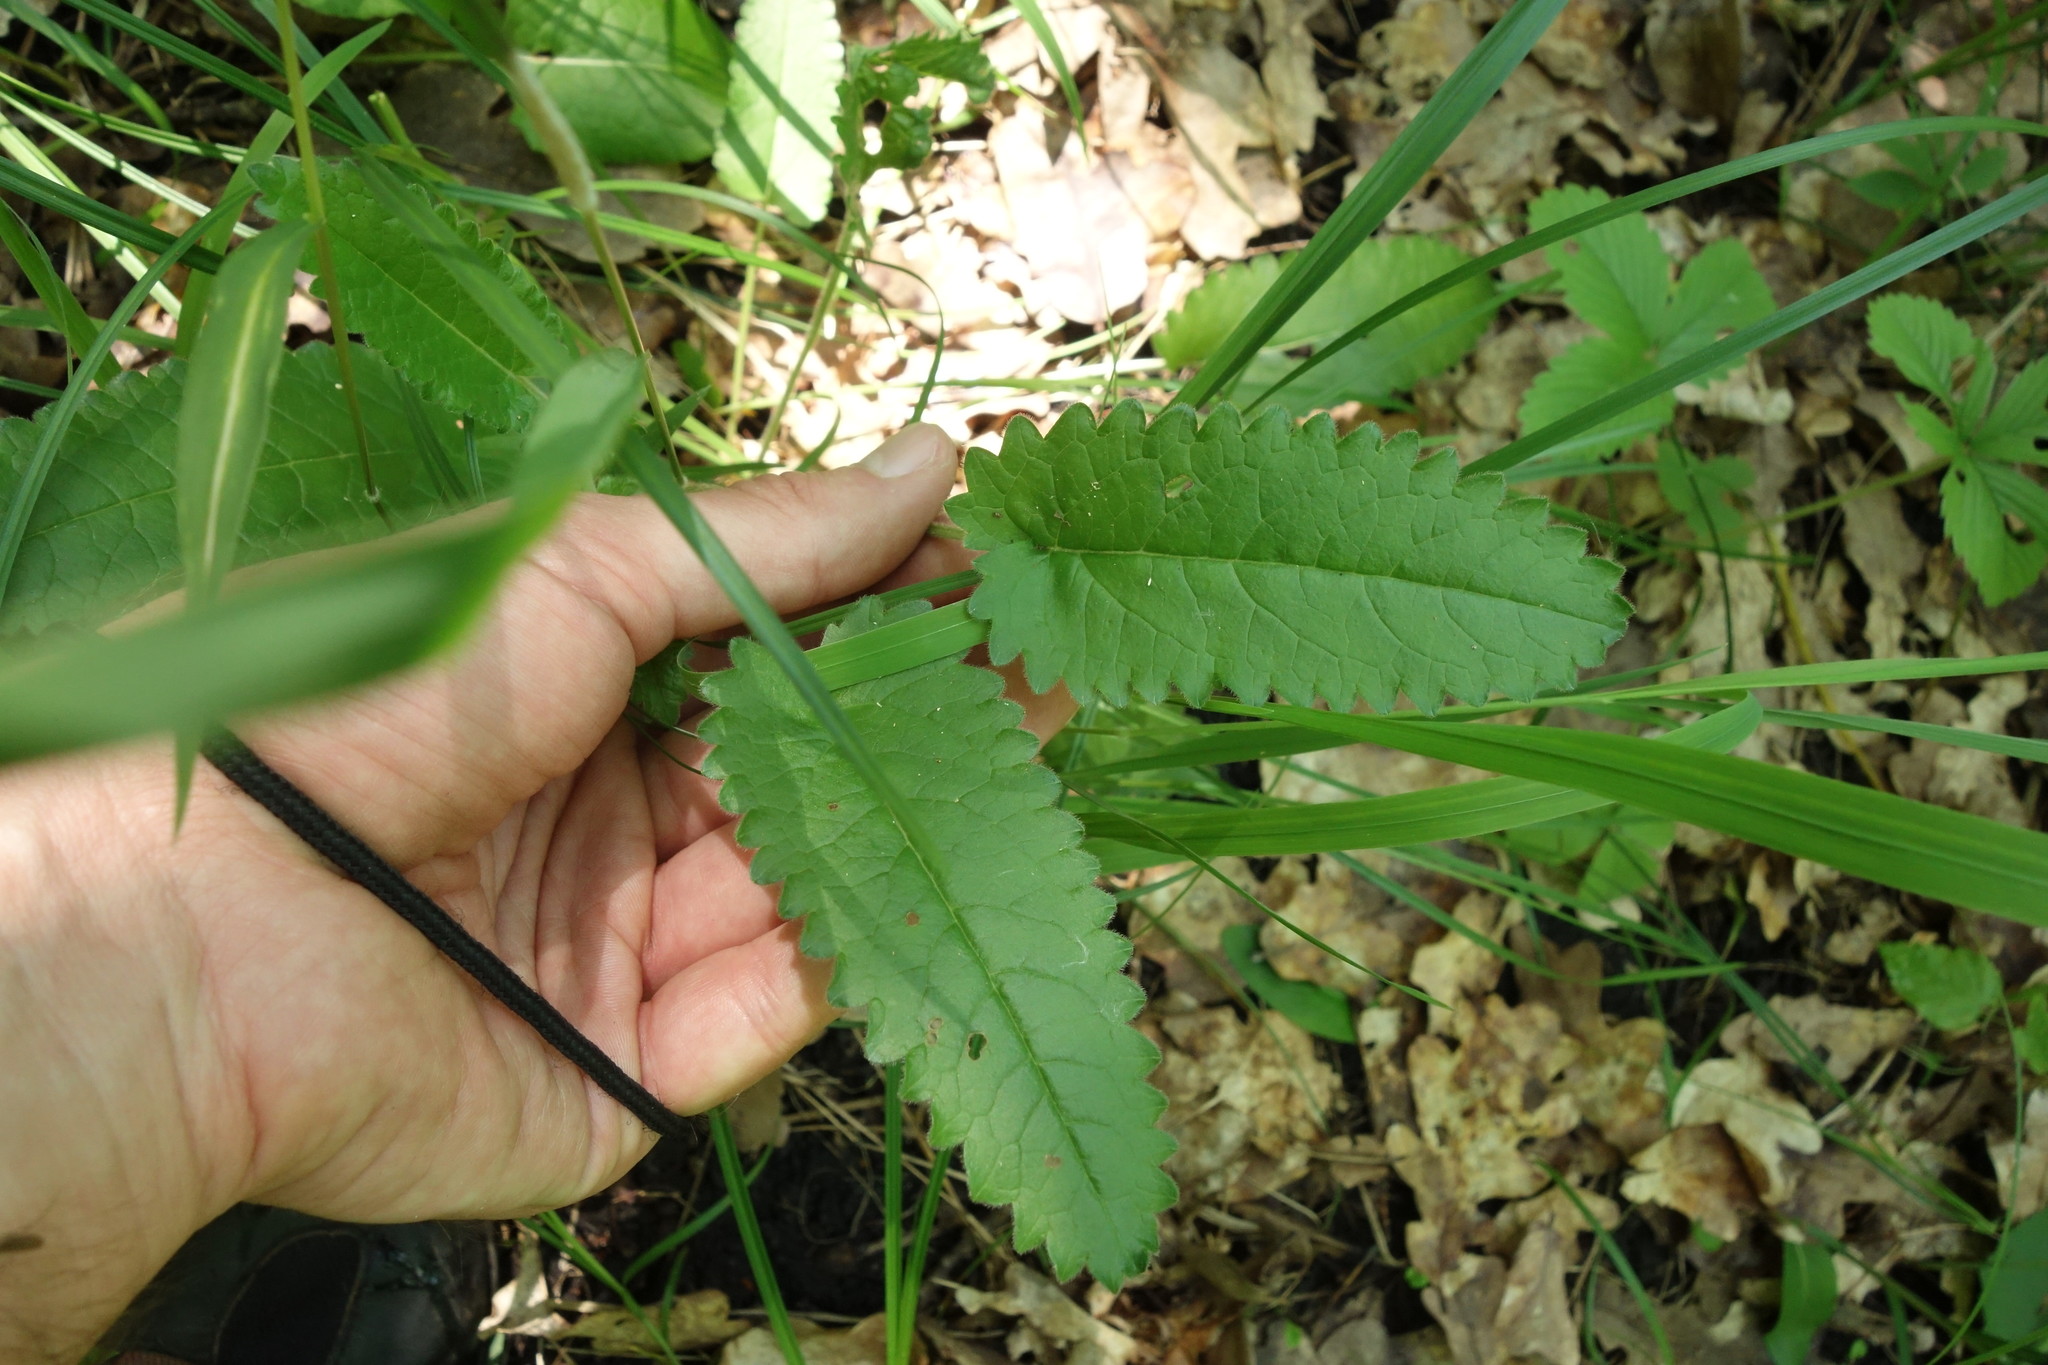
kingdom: Plantae
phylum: Tracheophyta
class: Magnoliopsida
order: Lamiales
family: Lamiaceae
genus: Betonica
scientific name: Betonica officinalis
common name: Bishop's-wort
